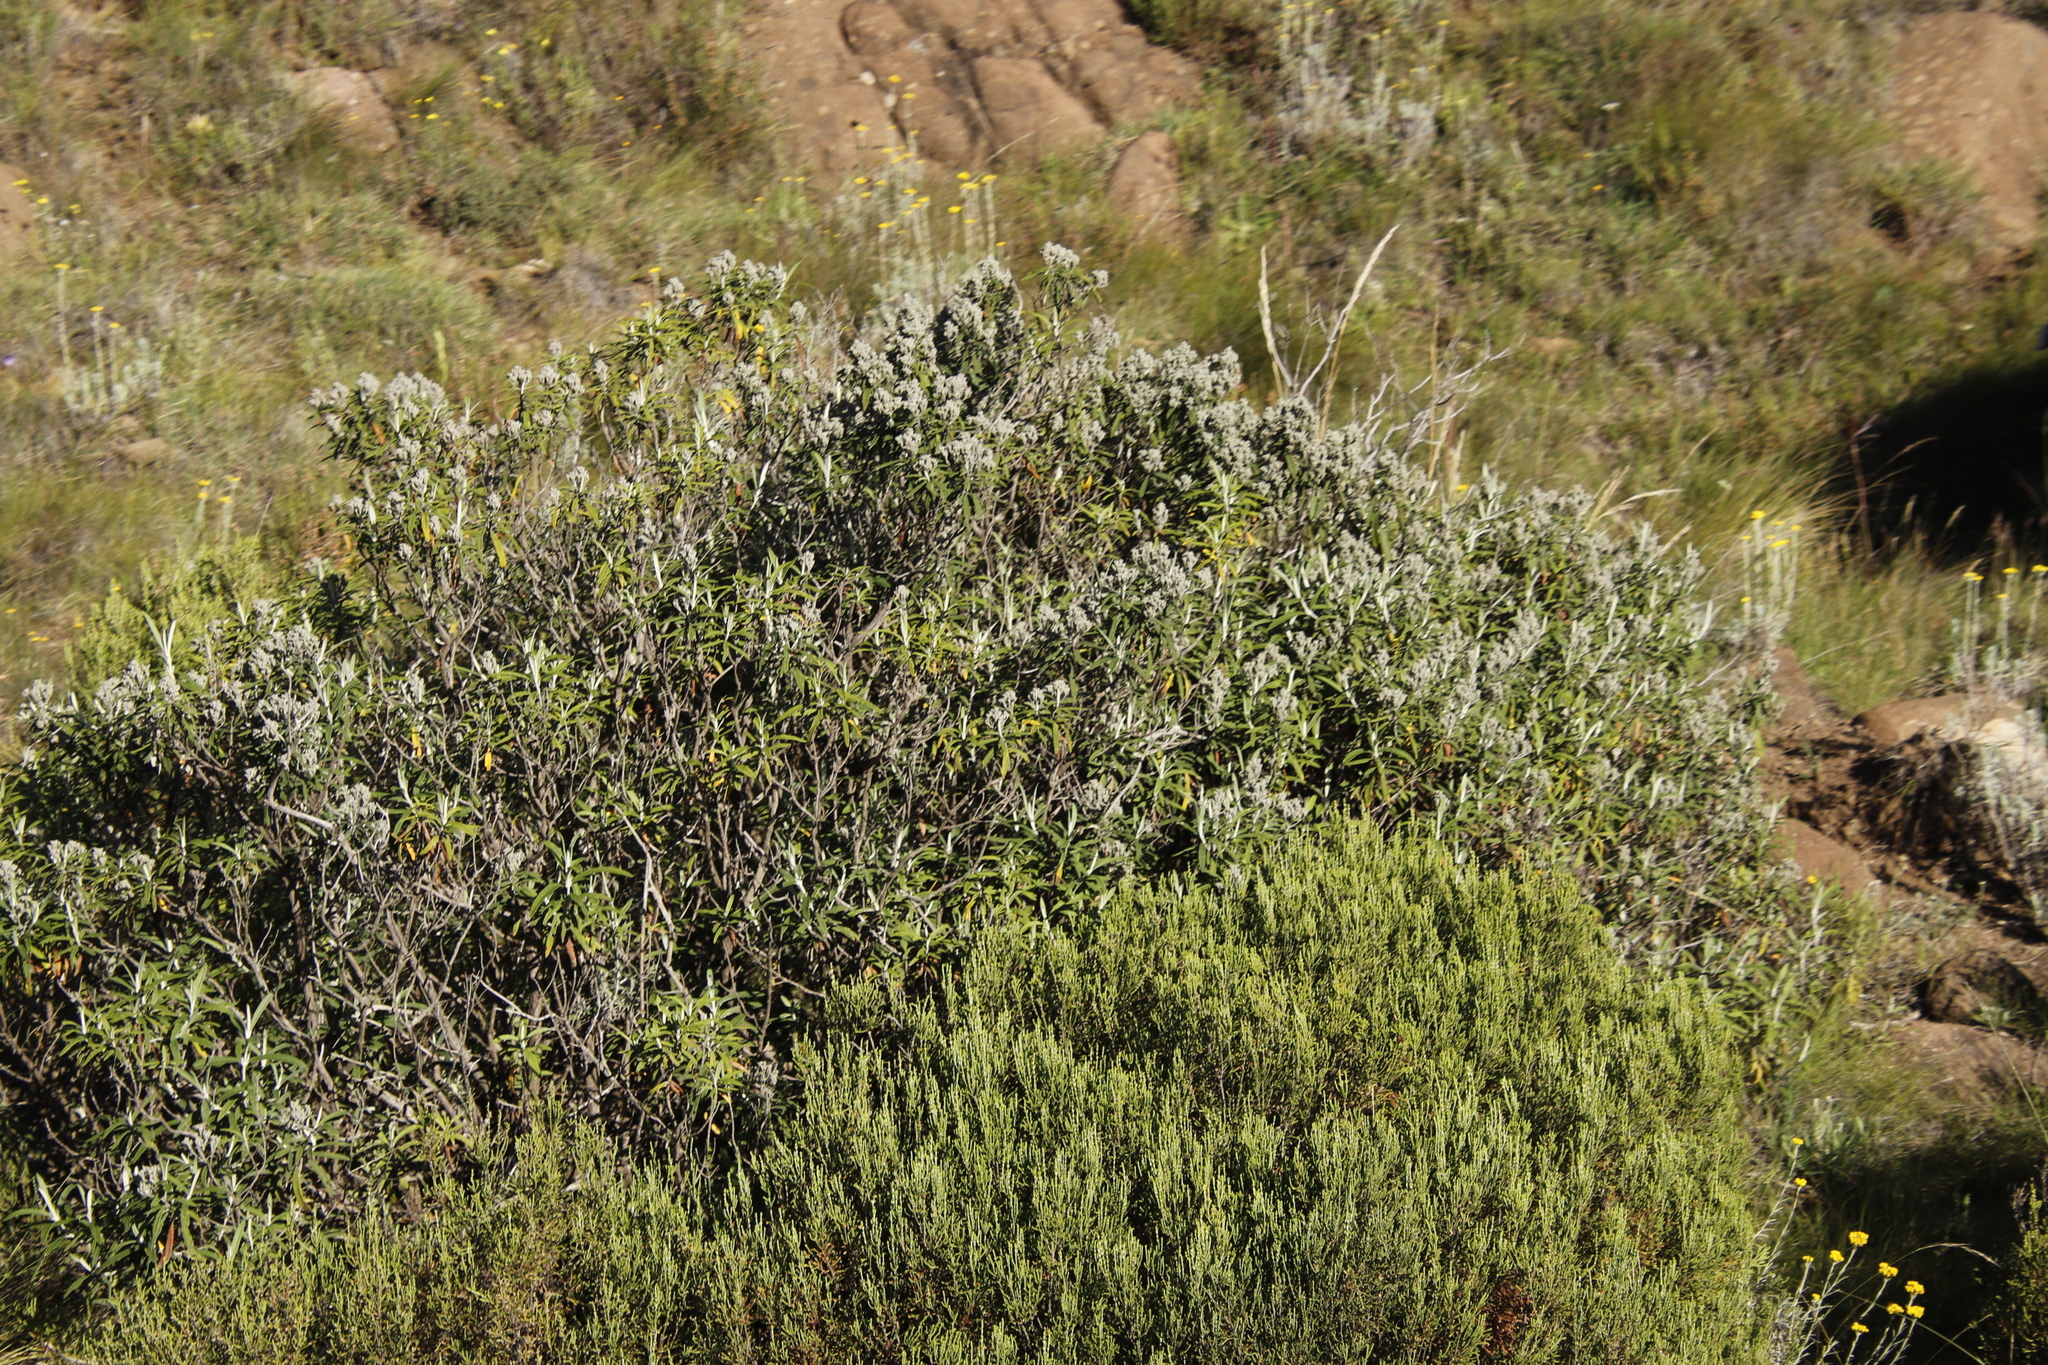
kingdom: Plantae
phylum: Tracheophyta
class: Magnoliopsida
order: Lamiales
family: Scrophulariaceae
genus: Buddleja
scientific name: Buddleja loricata
